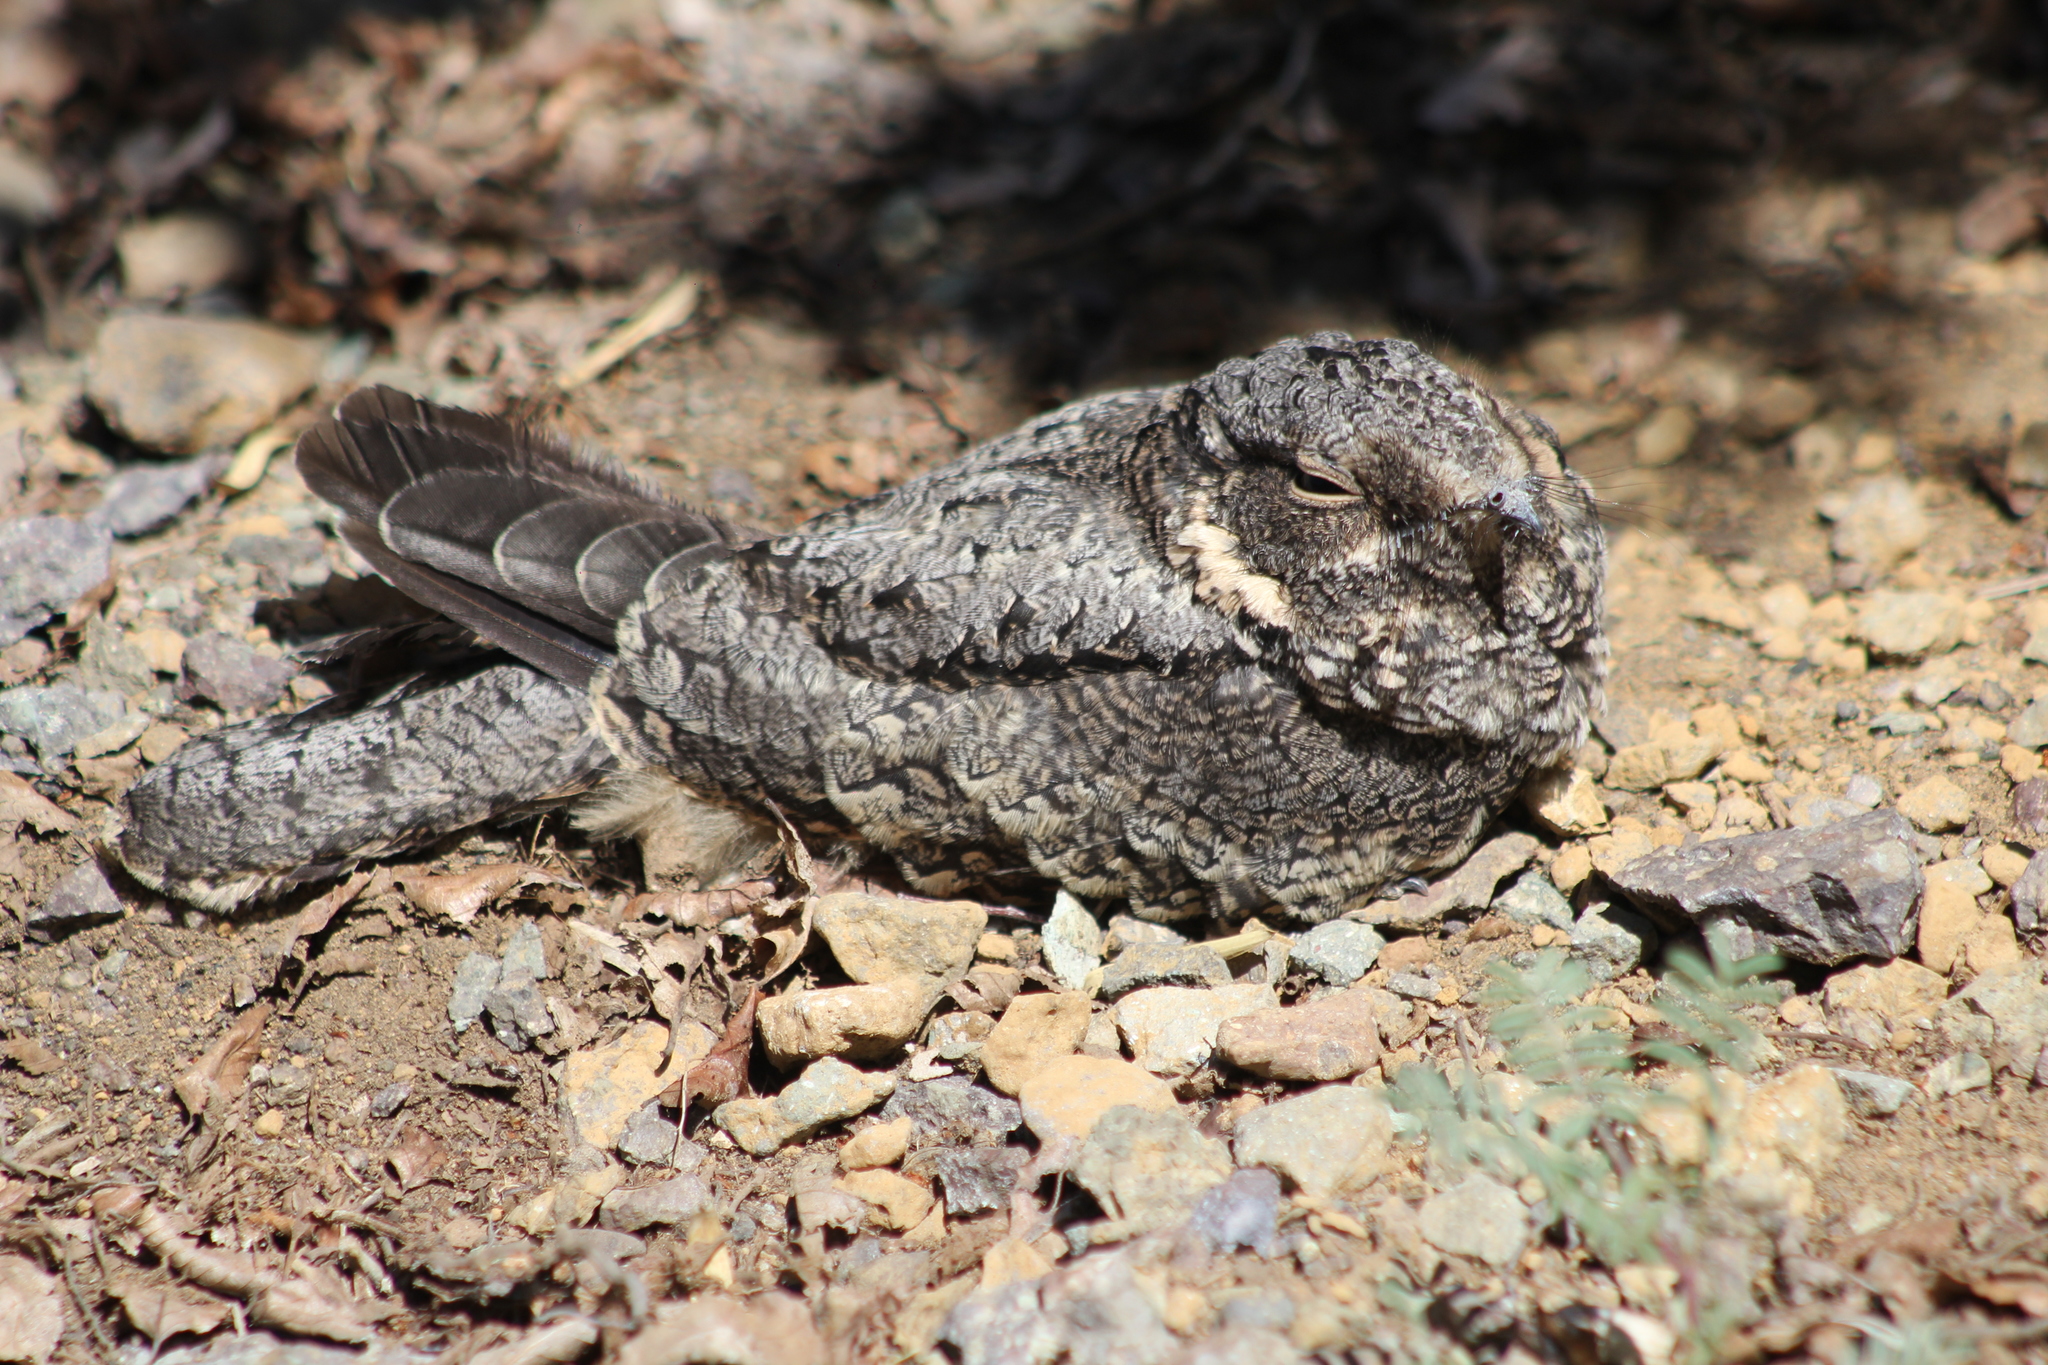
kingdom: Animalia
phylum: Chordata
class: Aves
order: Caprimulgiformes
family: Caprimulgidae
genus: Systellura
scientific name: Systellura longirostris
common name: Band-winged nightjar
